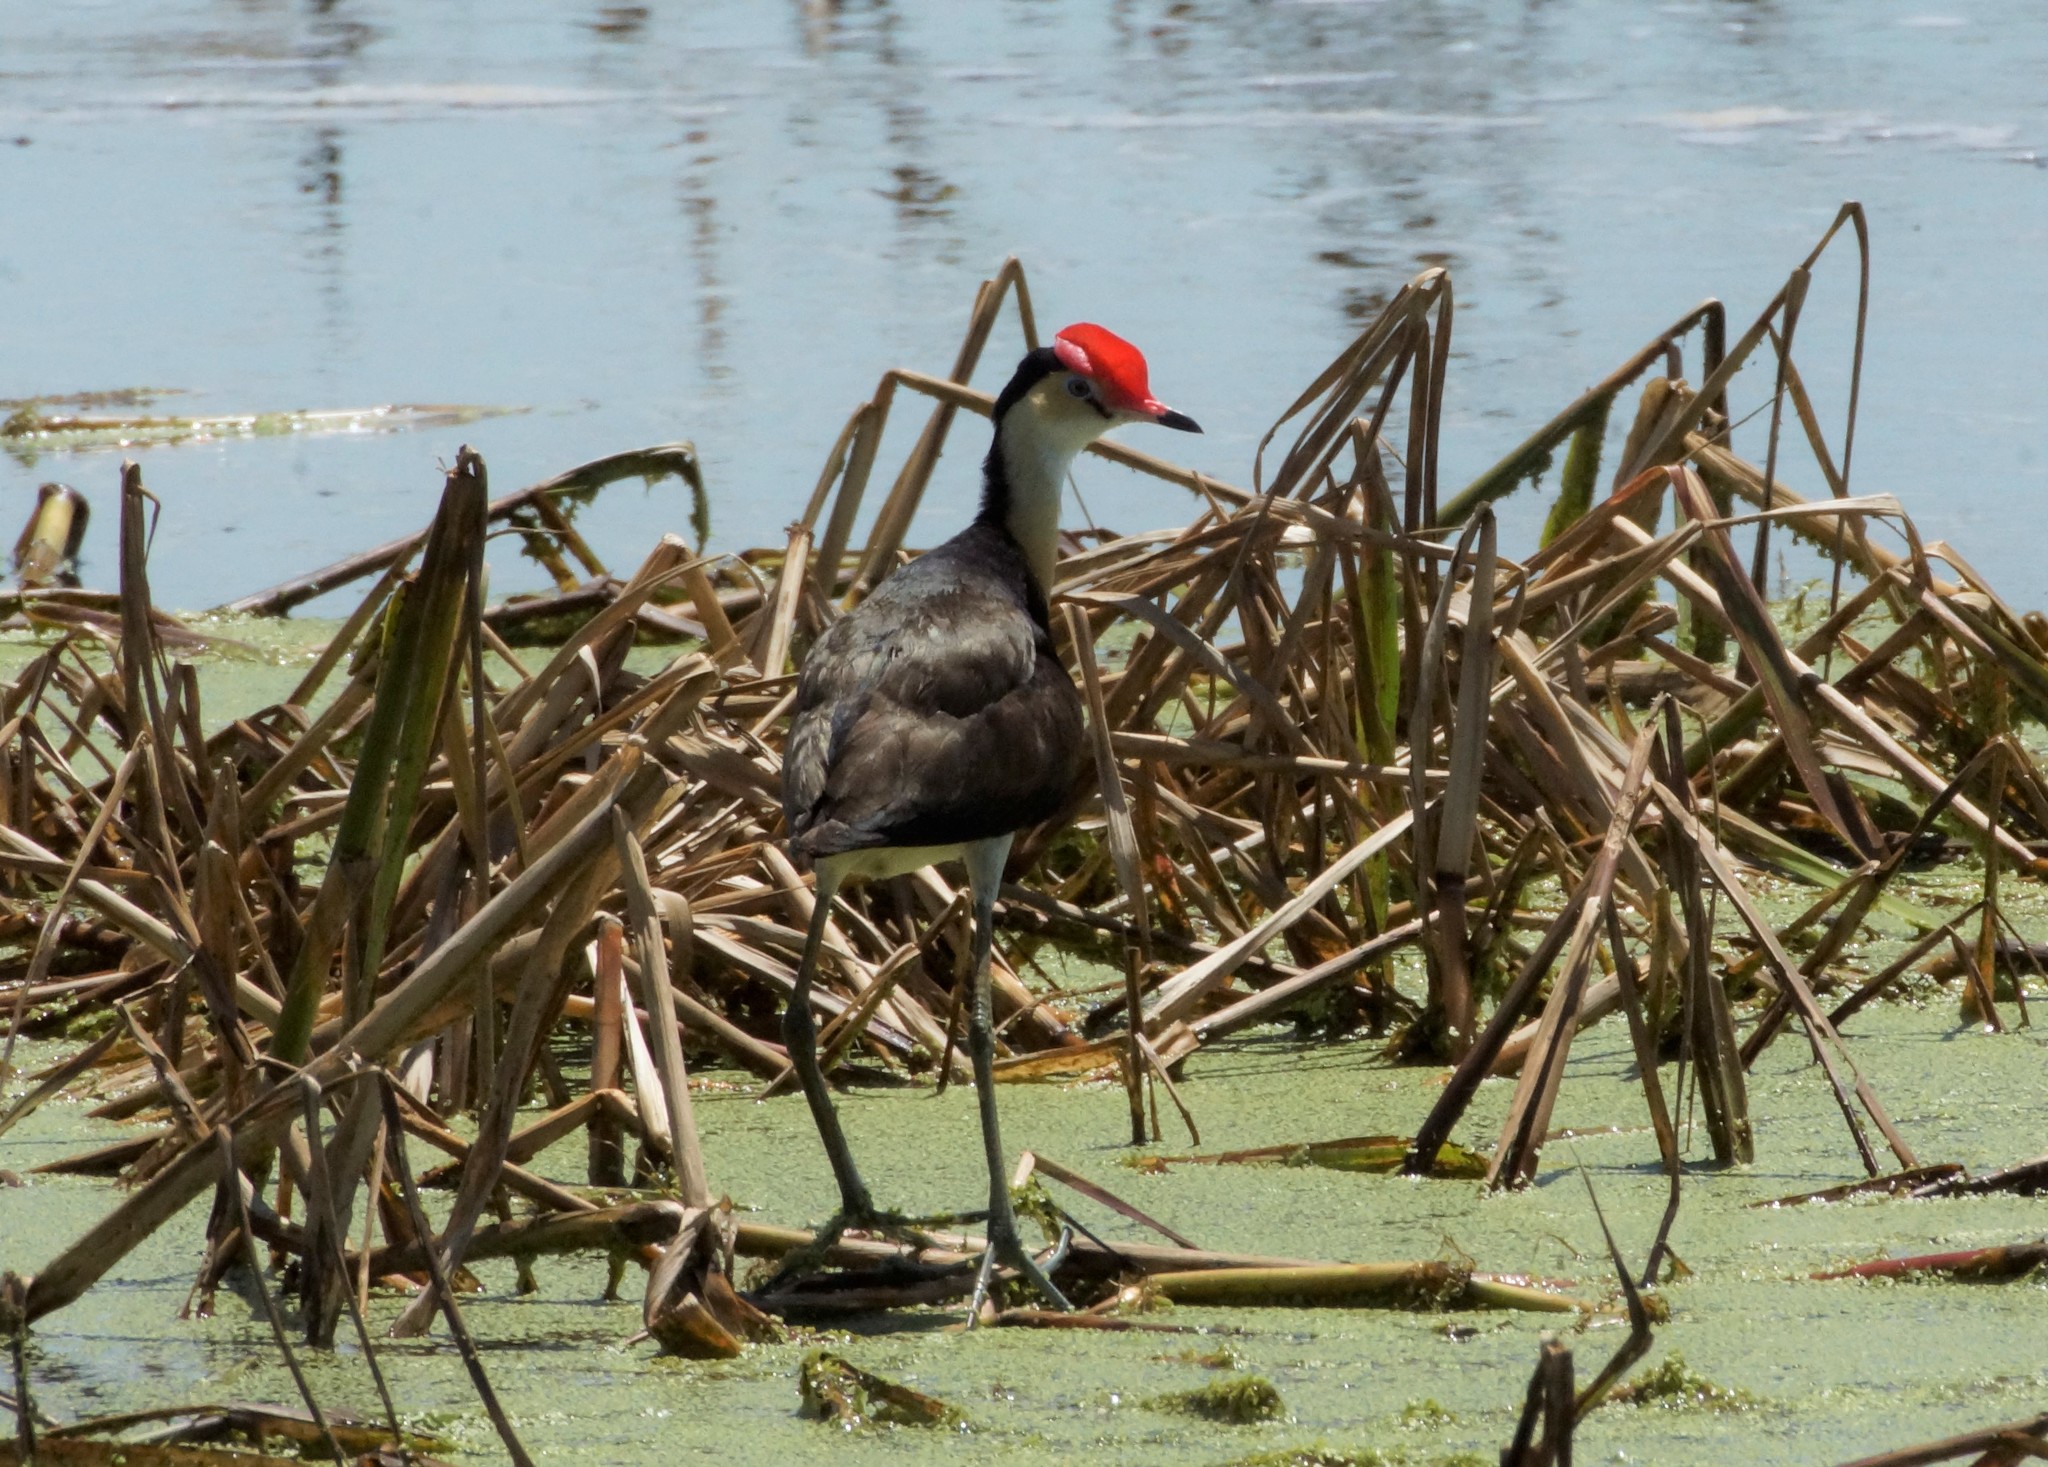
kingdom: Animalia
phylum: Chordata
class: Aves
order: Charadriiformes
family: Jacanidae
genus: Irediparra
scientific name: Irediparra gallinacea
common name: Comb-crested jacana
